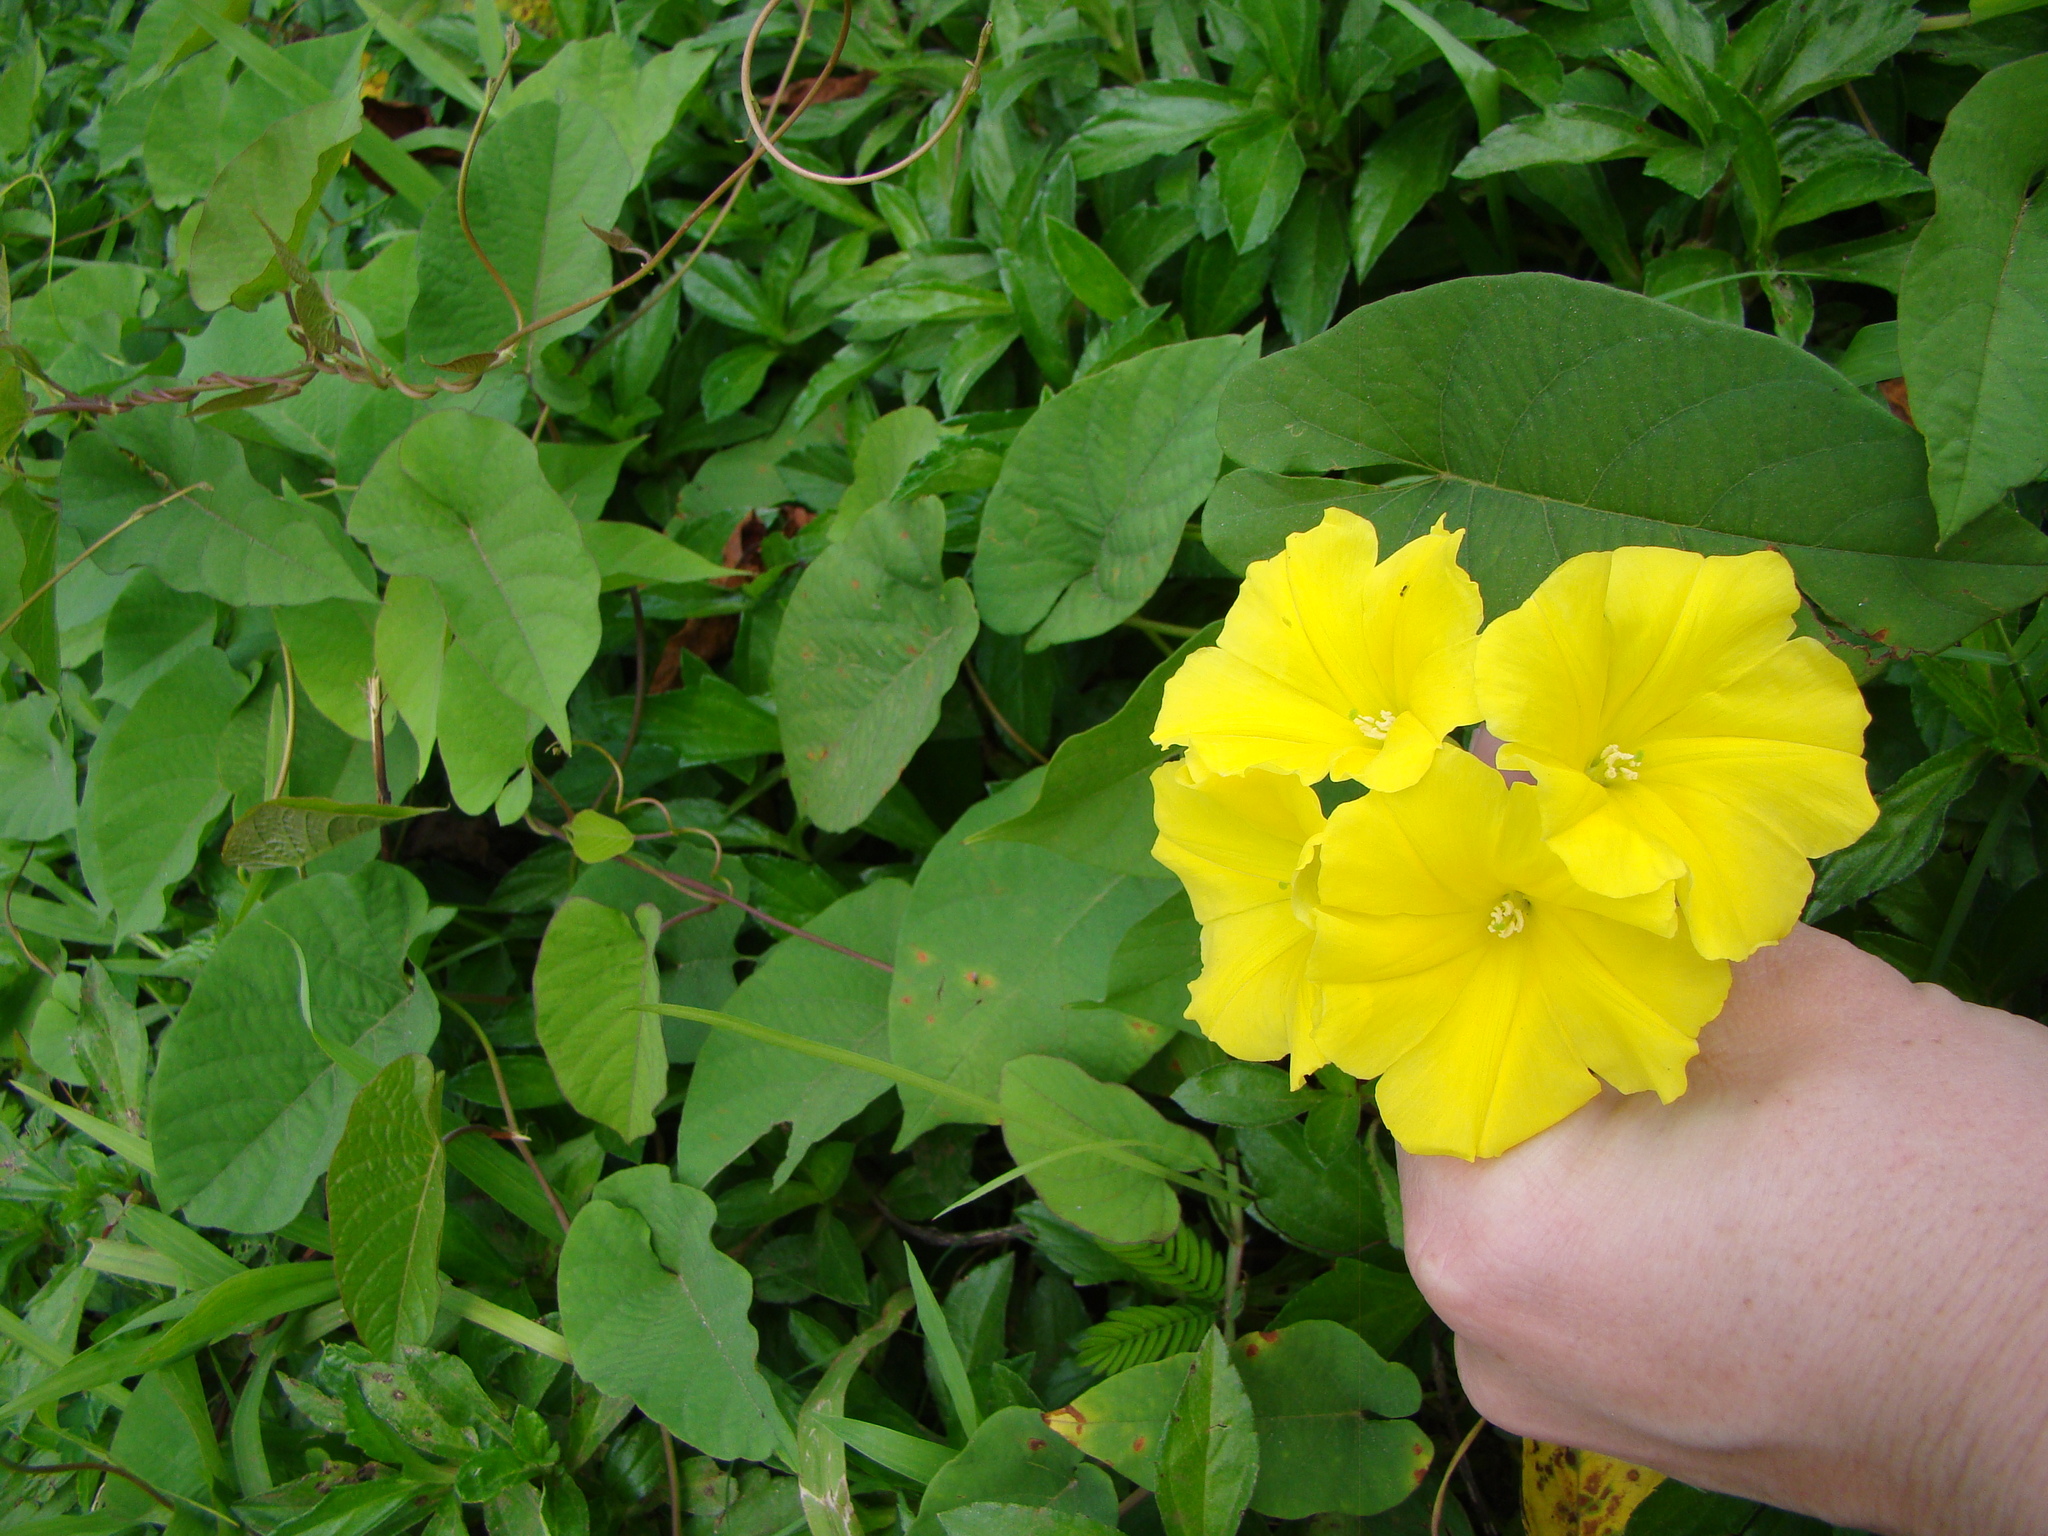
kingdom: Plantae
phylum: Tracheophyta
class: Magnoliopsida
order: Solanales
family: Convolvulaceae
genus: Camonea
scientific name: Camonea umbellata
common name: Hogvine
